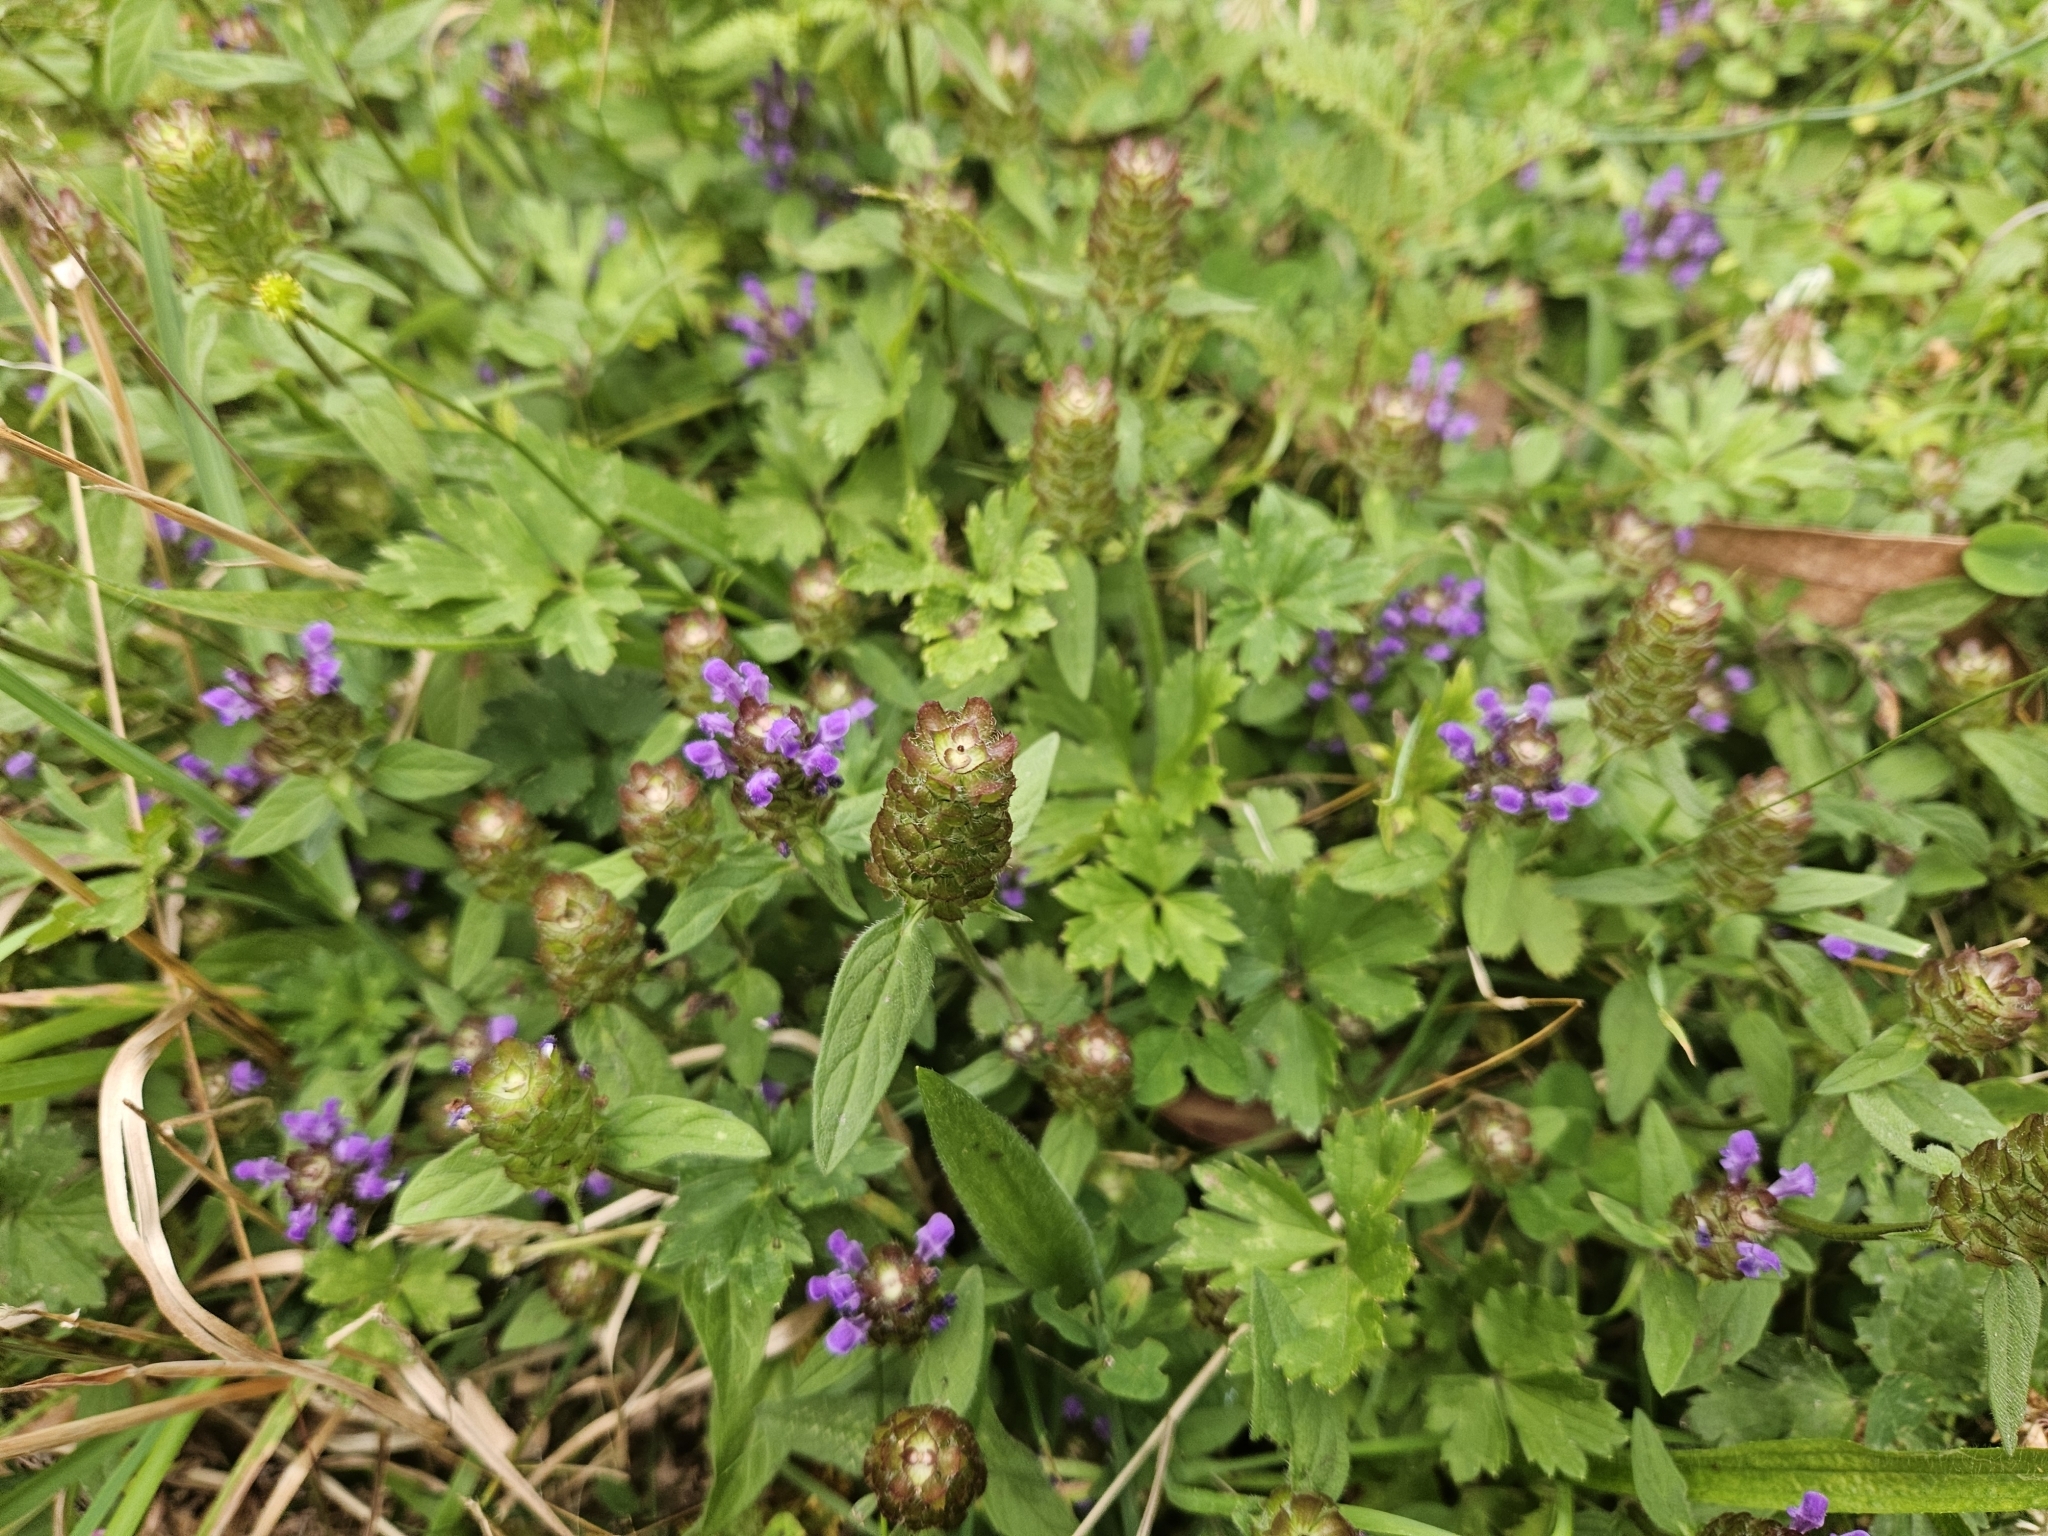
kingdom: Plantae
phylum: Tracheophyta
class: Magnoliopsida
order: Lamiales
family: Lamiaceae
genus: Prunella
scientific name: Prunella vulgaris
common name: Heal-all
